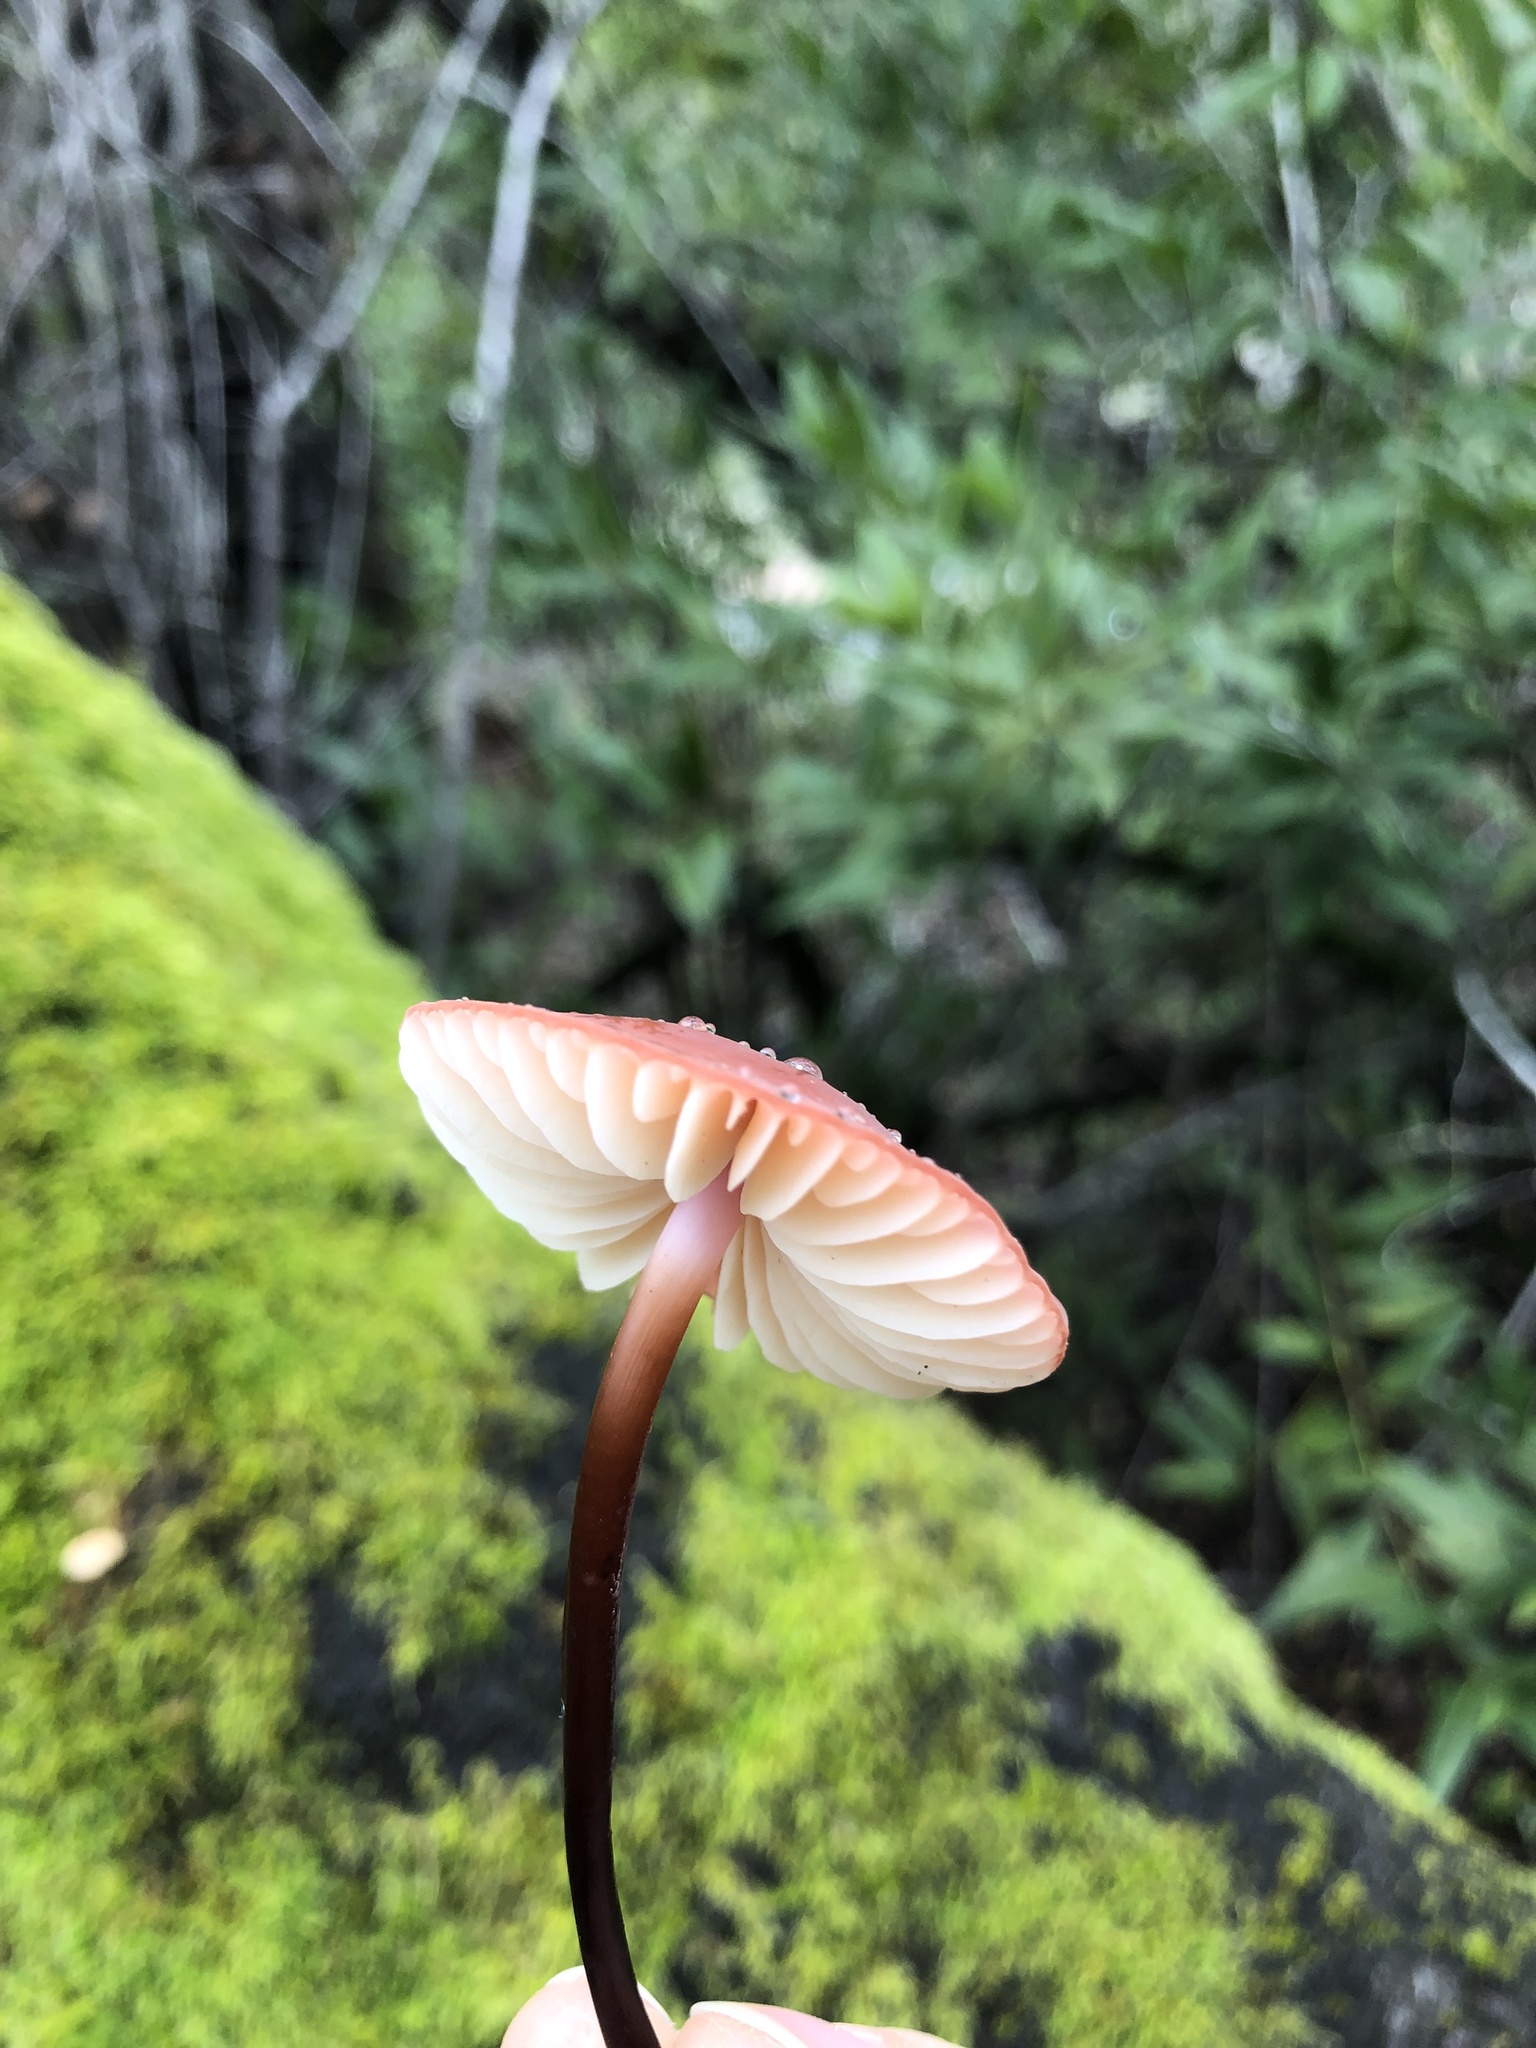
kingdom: Fungi
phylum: Basidiomycota
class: Agaricomycetes
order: Agaricales
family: Marasmiaceae
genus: Marasmius
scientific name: Marasmius plicatulus
